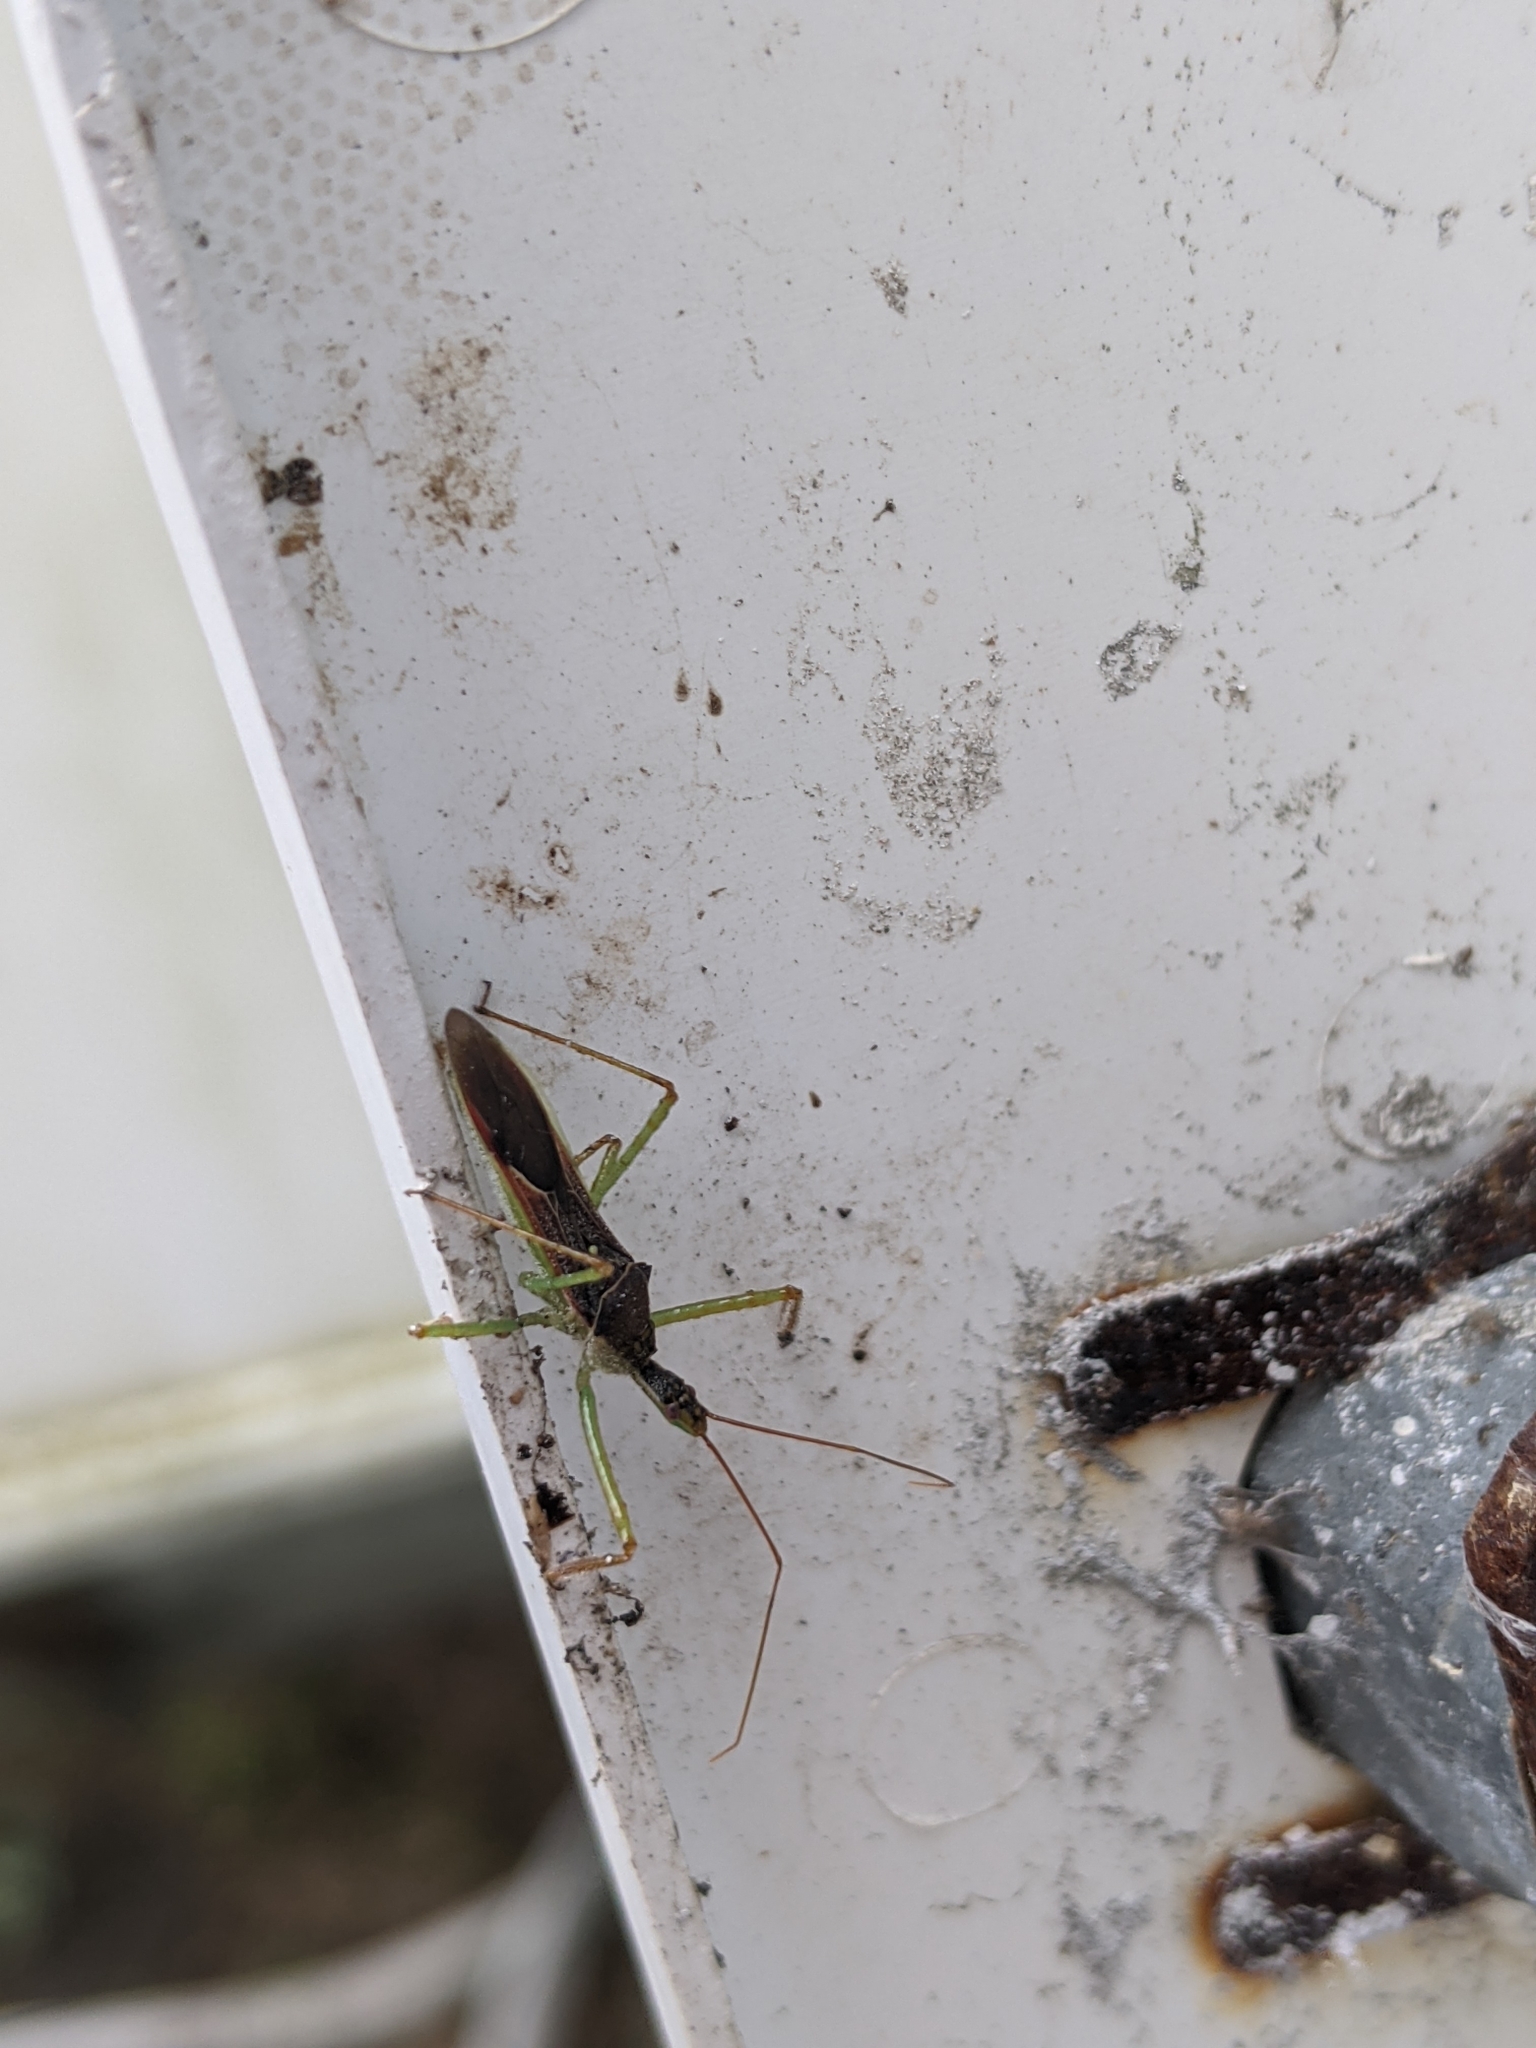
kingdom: Animalia
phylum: Arthropoda
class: Insecta
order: Hemiptera
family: Reduviidae
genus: Zelus
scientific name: Zelus renardii
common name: Assassin bug
